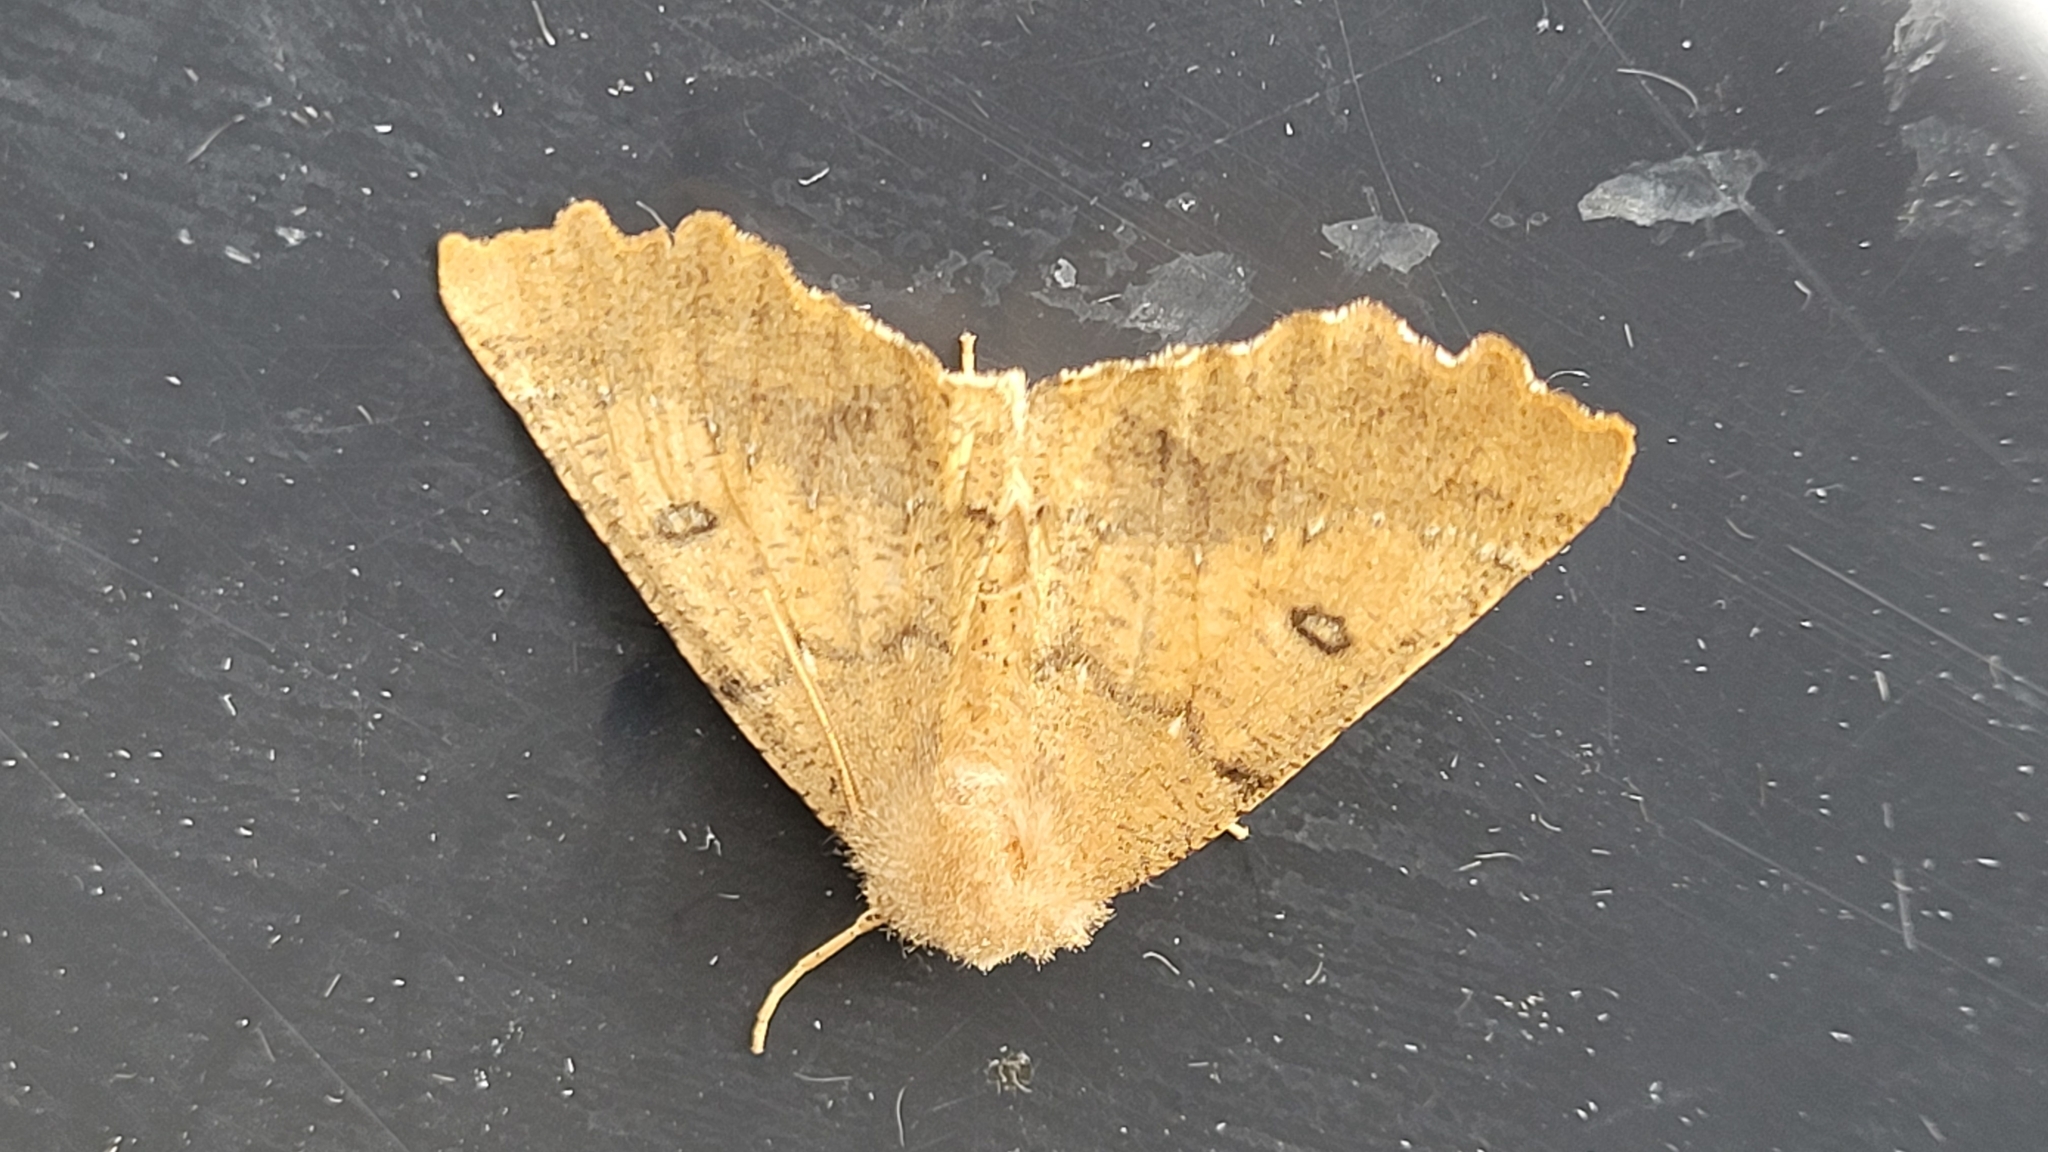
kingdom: Animalia
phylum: Arthropoda
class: Insecta
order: Lepidoptera
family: Geometridae
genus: Odontopera
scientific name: Odontopera bidentata
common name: Scalloped hazel
